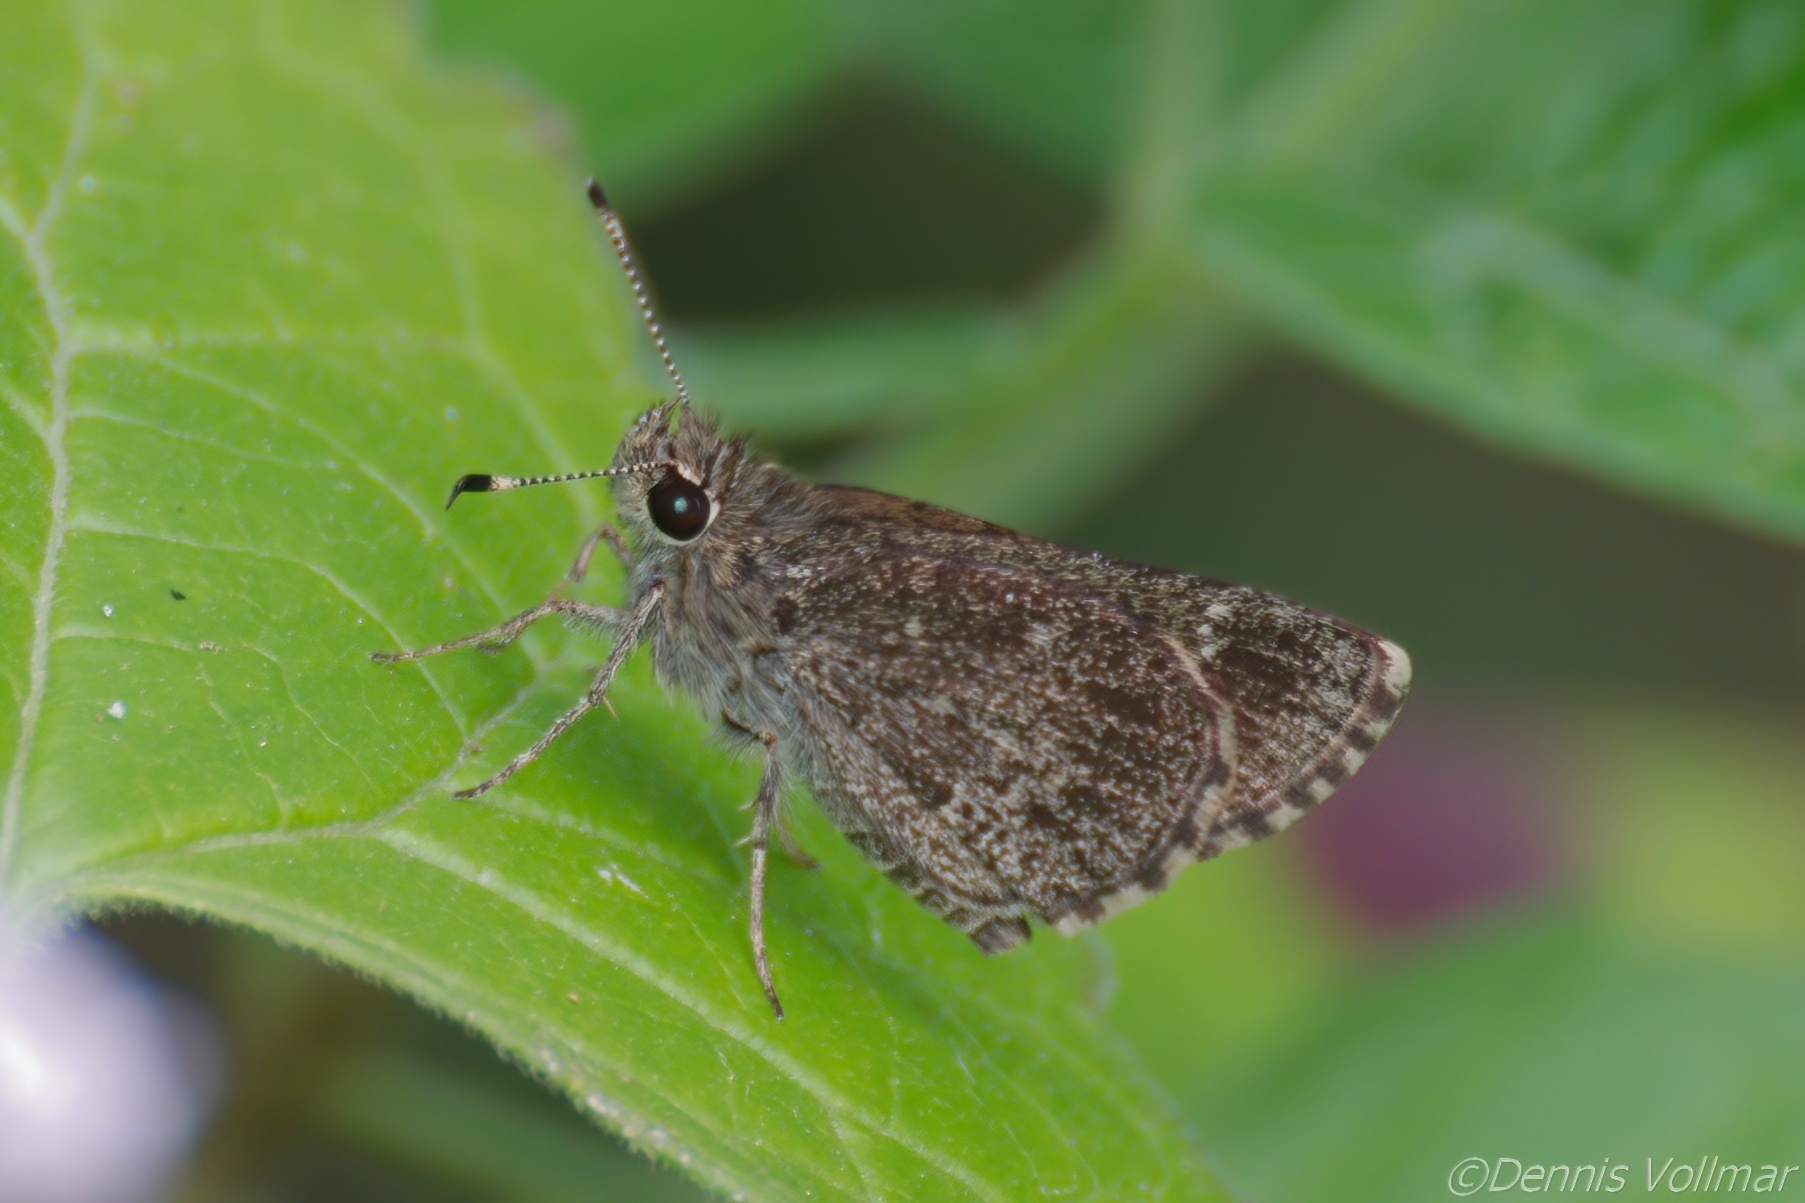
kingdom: Animalia
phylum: Arthropoda
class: Insecta
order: Lepidoptera
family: Hesperiidae
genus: Mastor
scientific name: Mastor celia
